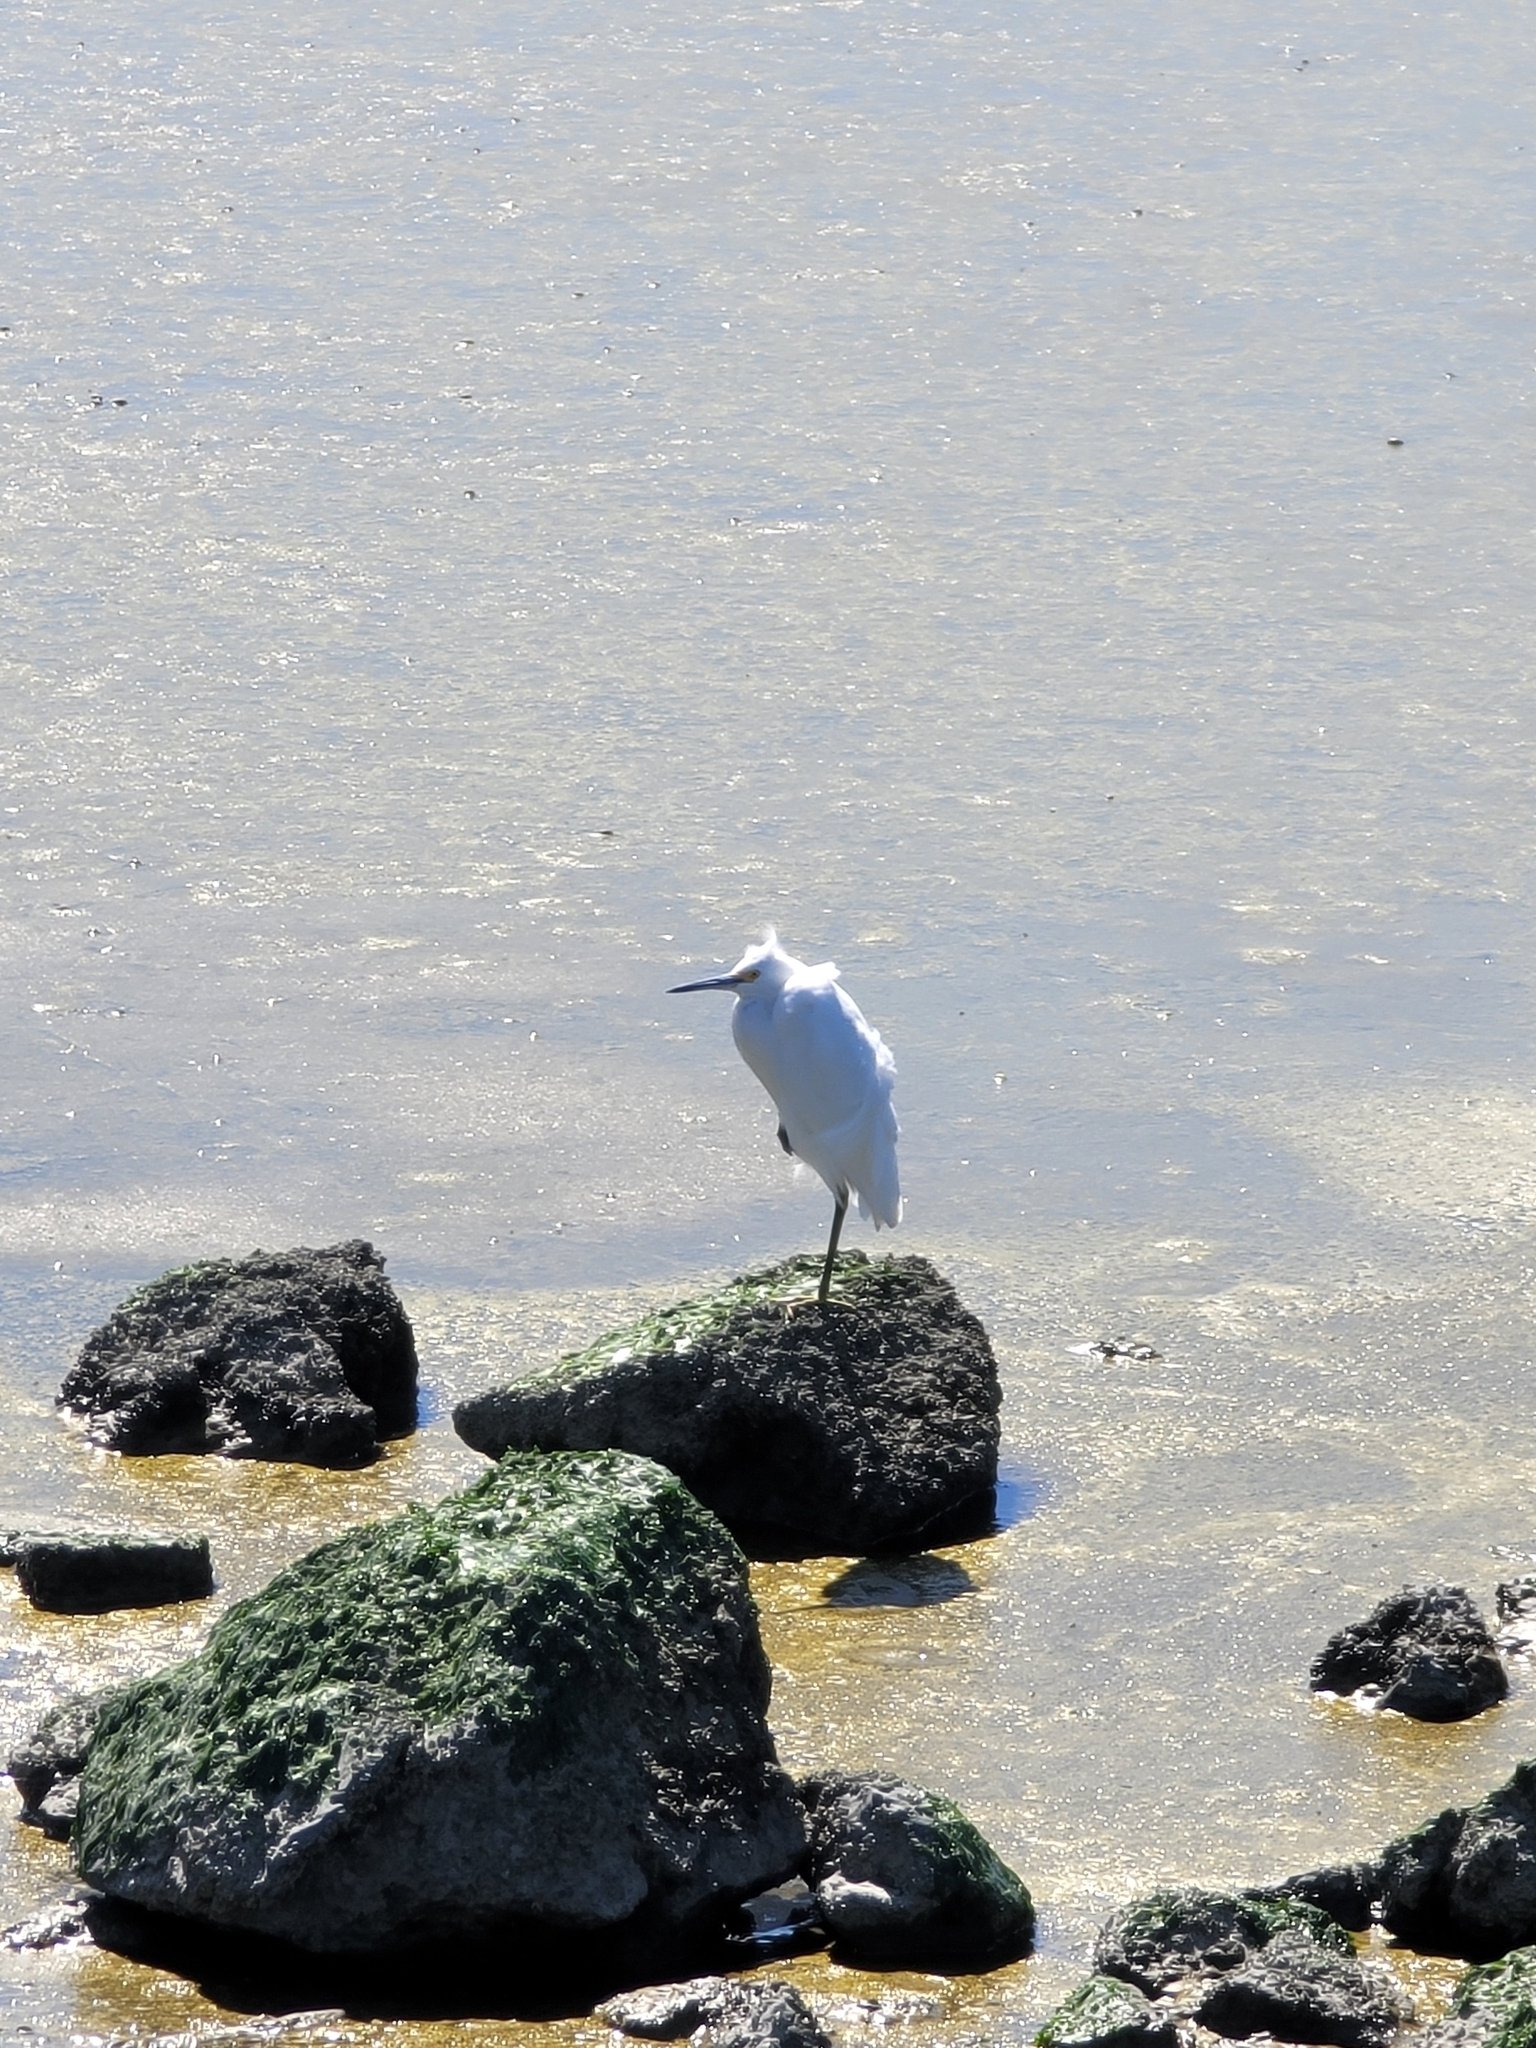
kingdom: Animalia
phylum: Chordata
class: Aves
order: Pelecaniformes
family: Ardeidae
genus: Egretta
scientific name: Egretta thula
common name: Snowy egret
